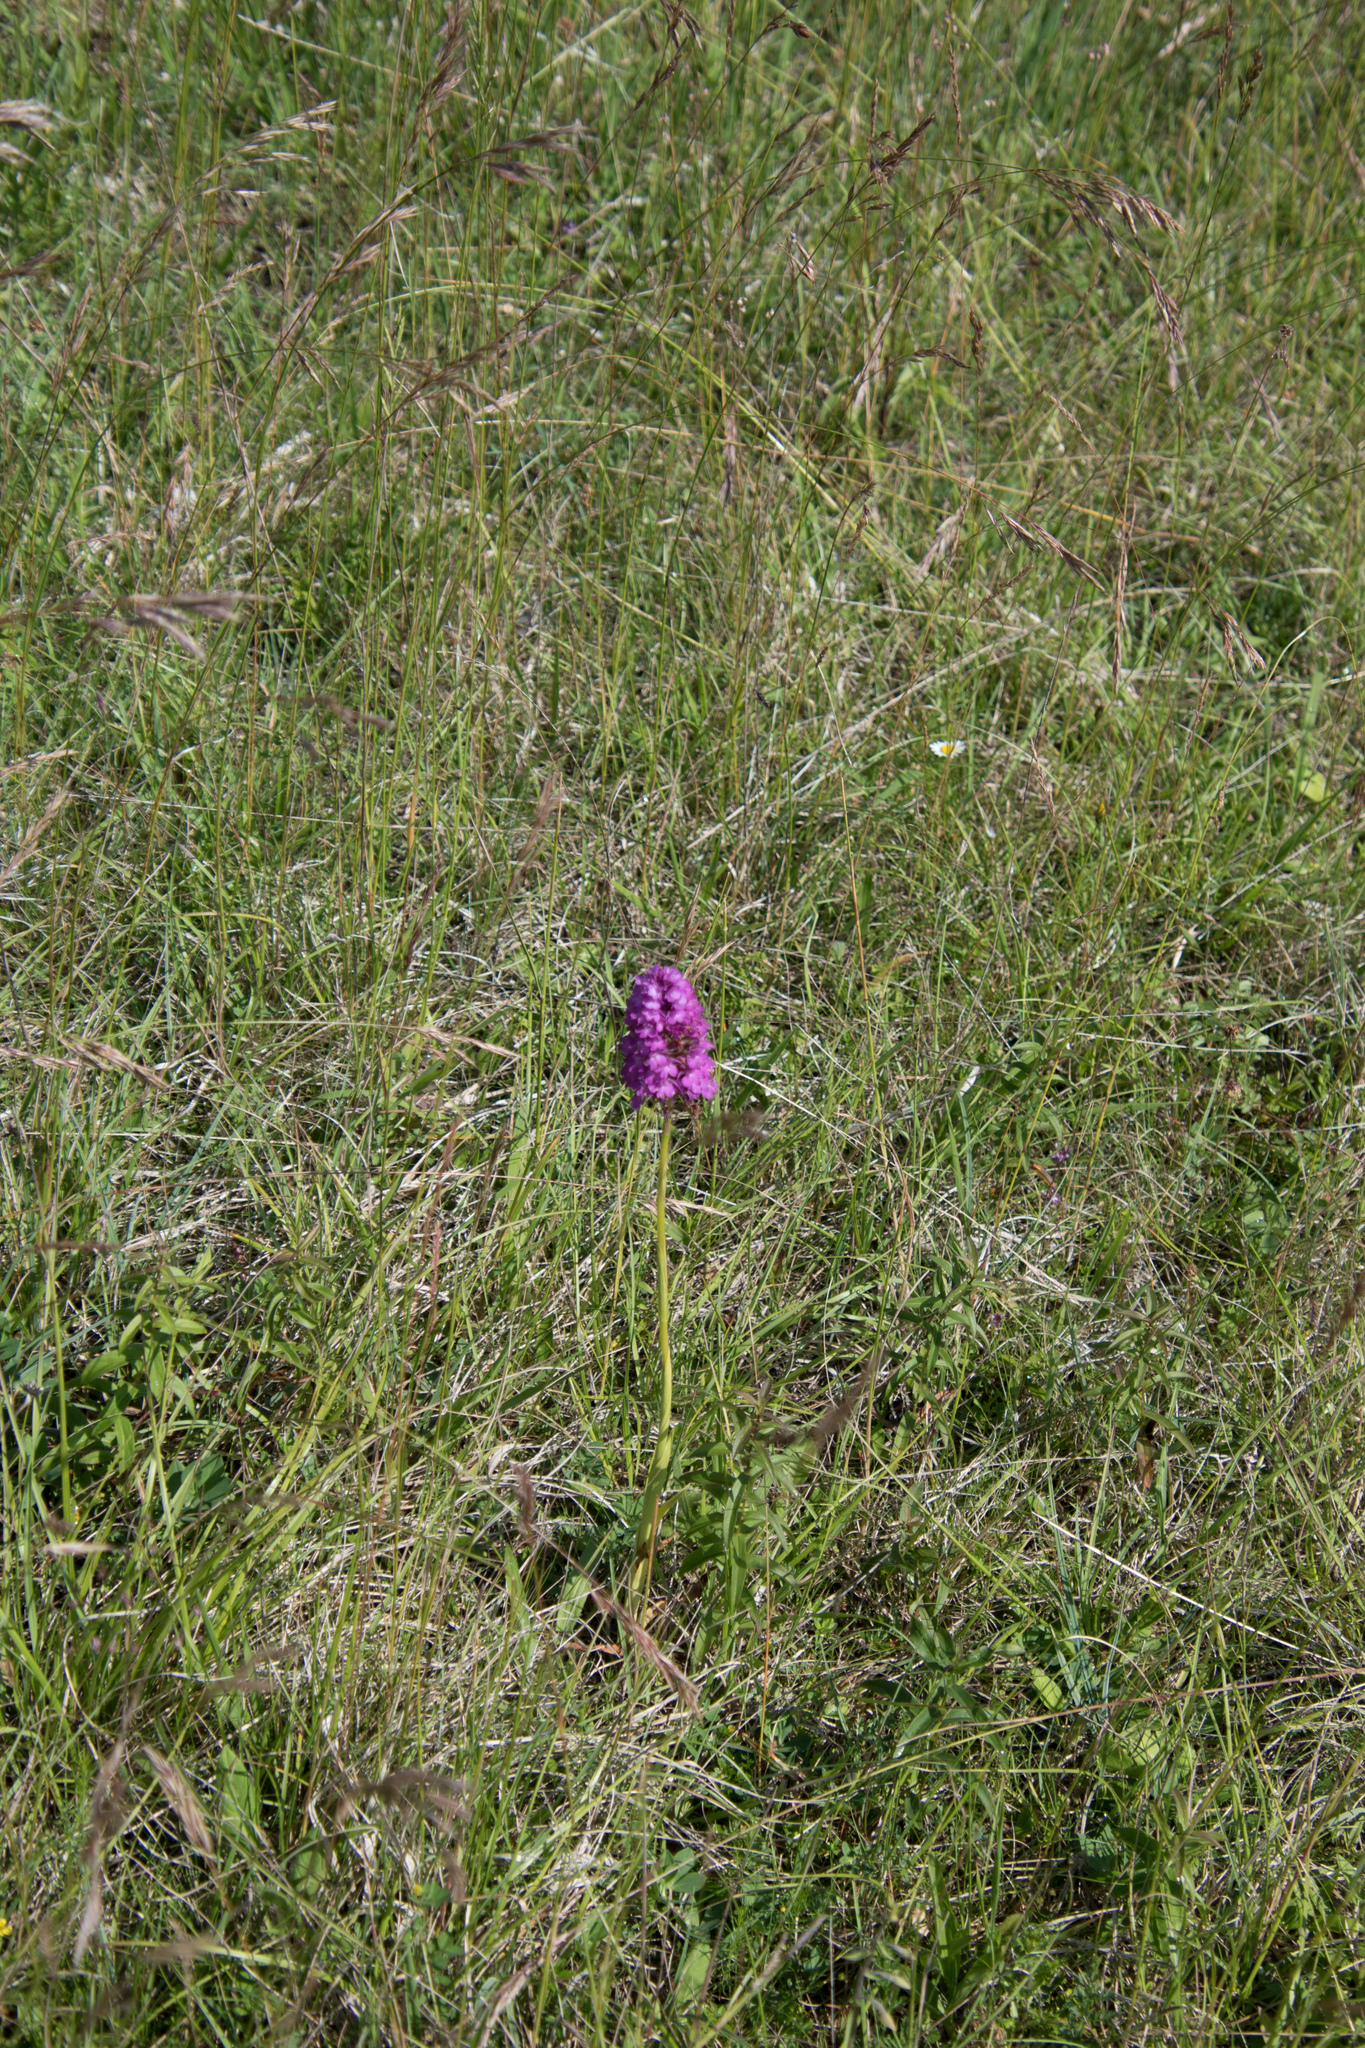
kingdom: Plantae
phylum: Tracheophyta
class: Liliopsida
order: Asparagales
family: Orchidaceae
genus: Anacamptis
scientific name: Anacamptis pyramidalis
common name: Pyramidal orchid
